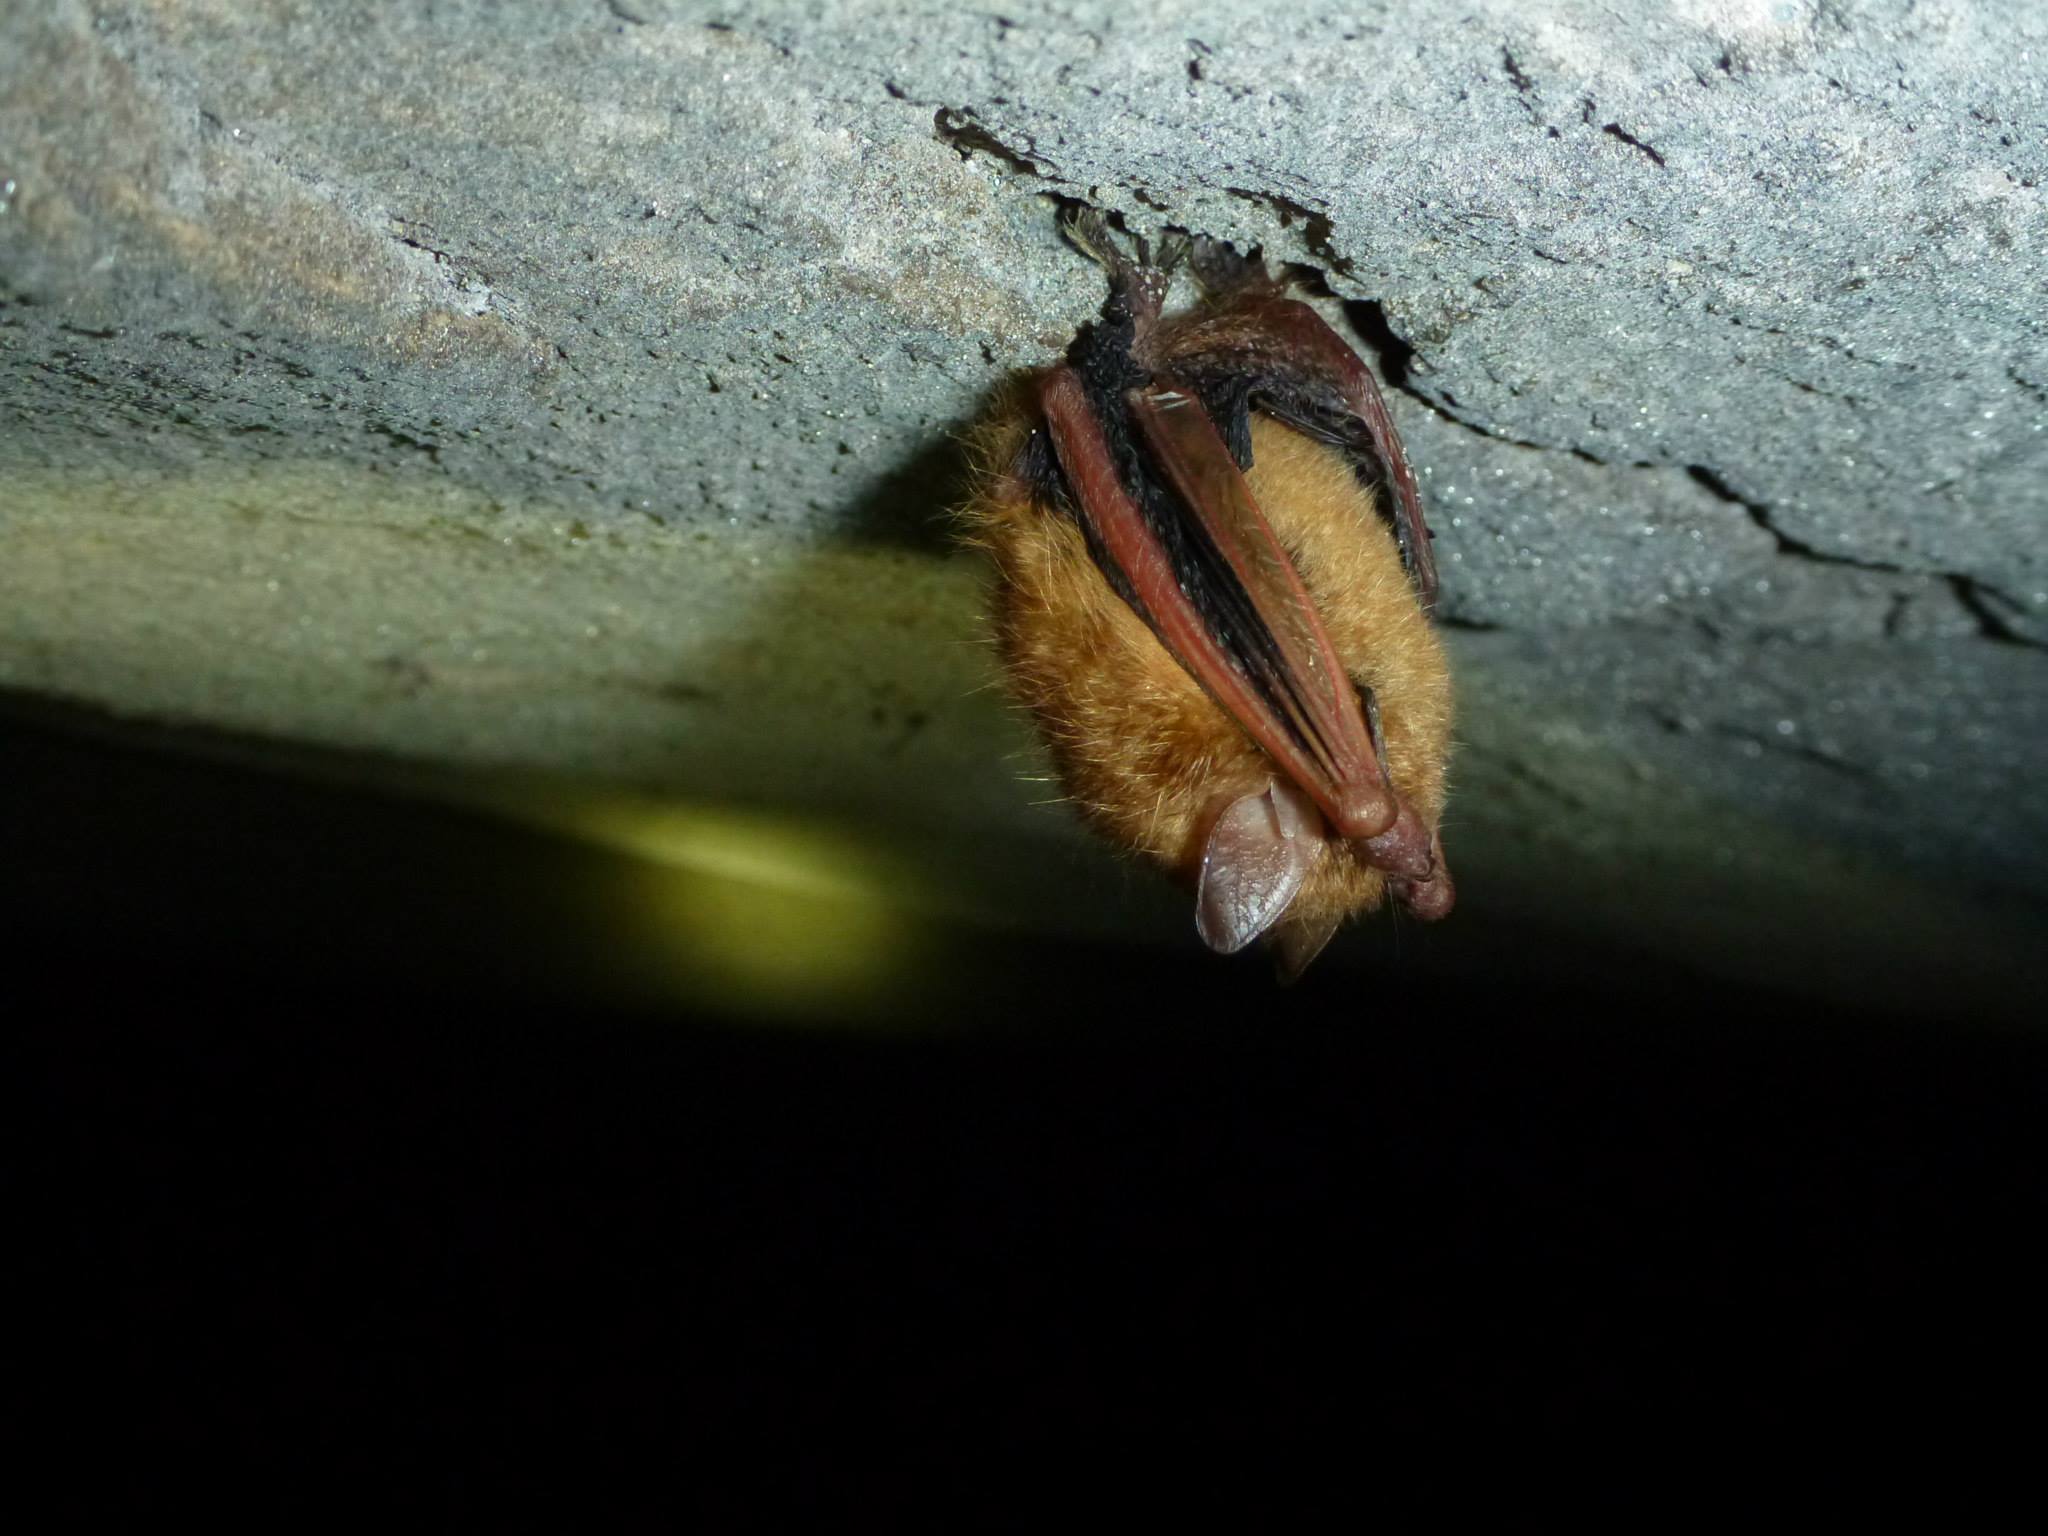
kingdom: Animalia
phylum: Chordata
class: Mammalia
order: Chiroptera
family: Vespertilionidae
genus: Perimyotis
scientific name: Perimyotis subflavus
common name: Eastern pipistrelle
